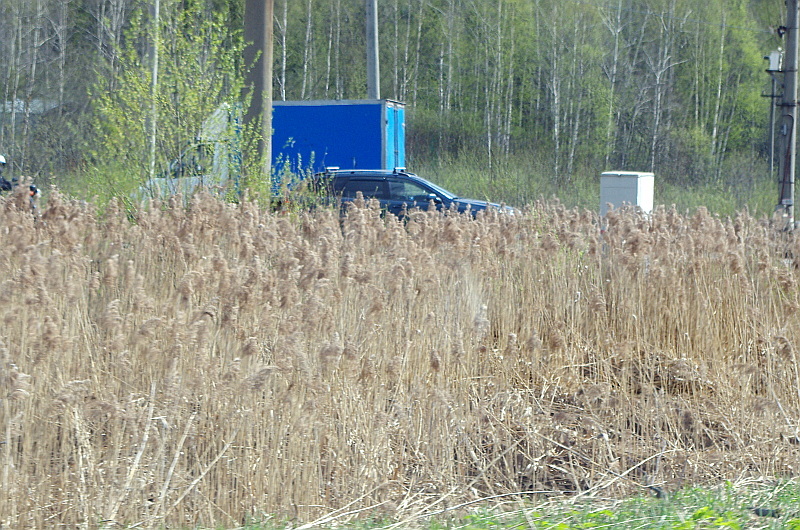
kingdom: Plantae
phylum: Tracheophyta
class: Liliopsida
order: Poales
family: Poaceae
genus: Phragmites
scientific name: Phragmites australis
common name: Common reed
